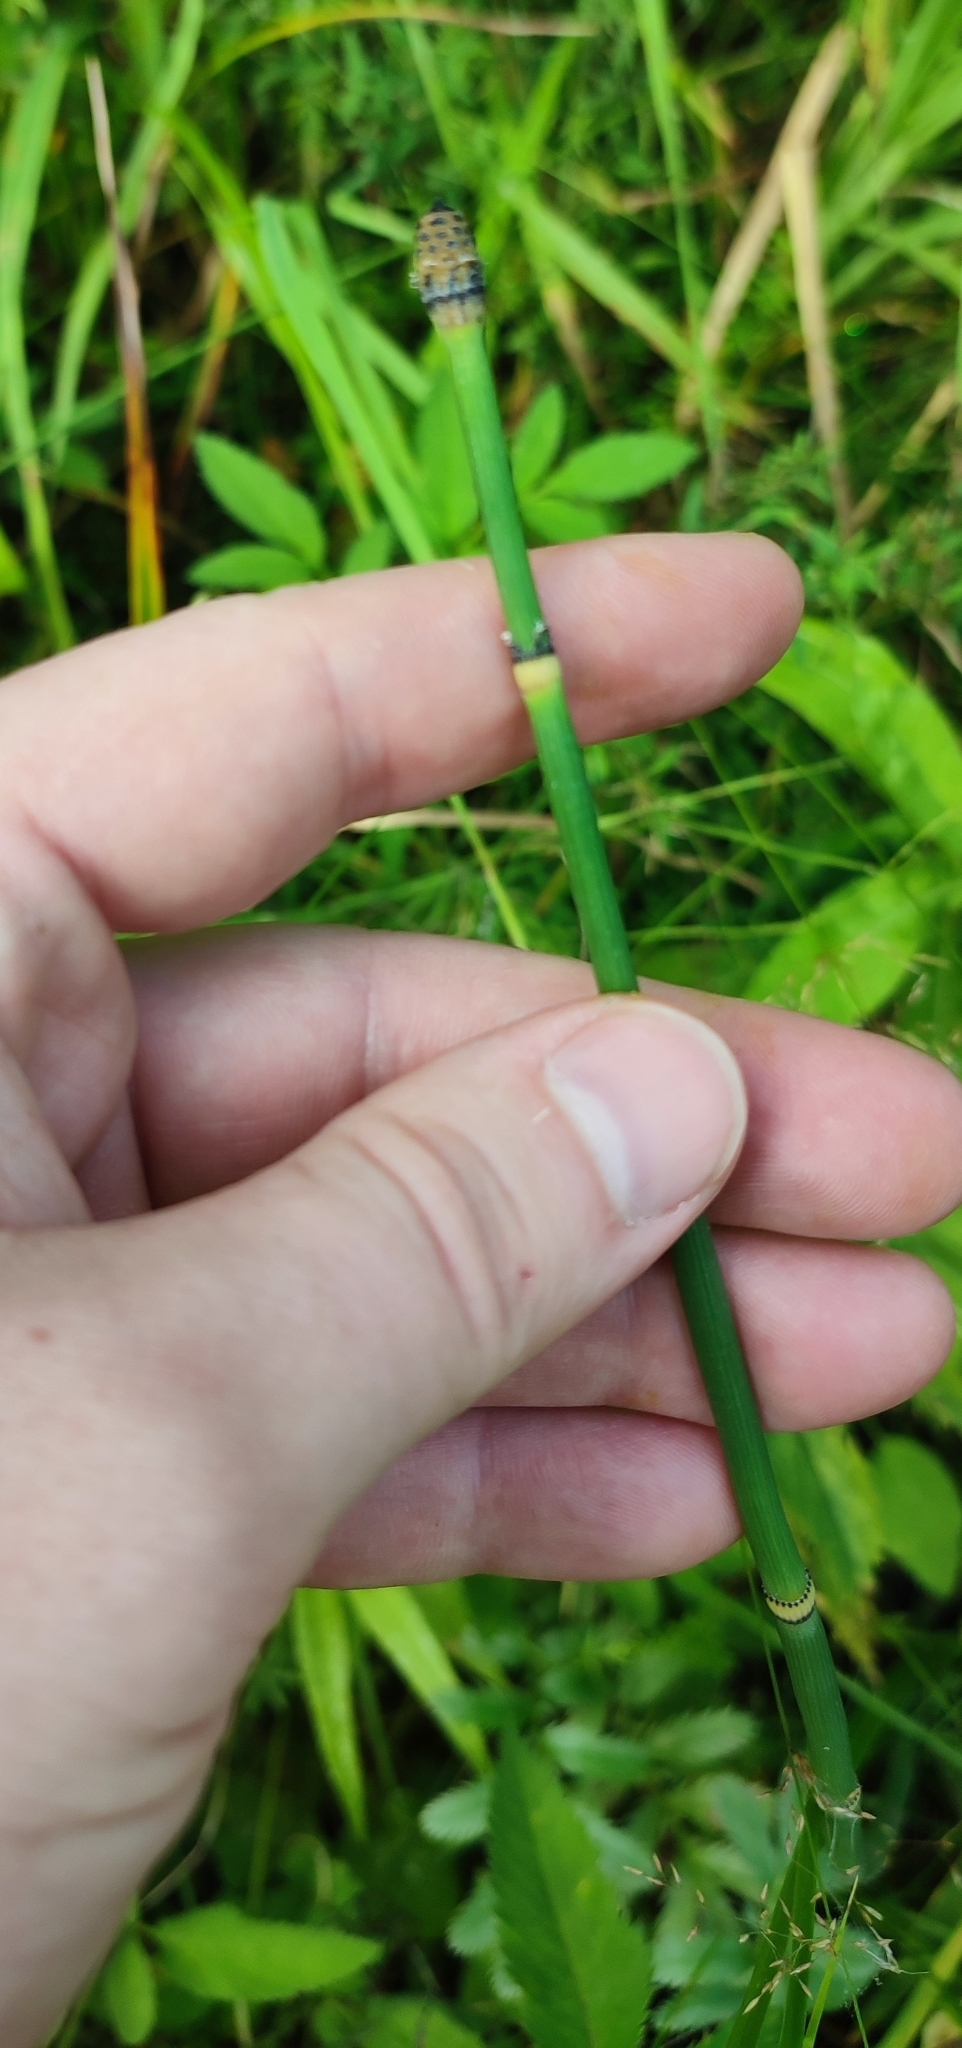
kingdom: Plantae
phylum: Tracheophyta
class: Polypodiopsida
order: Equisetales
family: Equisetaceae
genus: Equisetum
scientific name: Equisetum hyemale
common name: Rough horsetail
